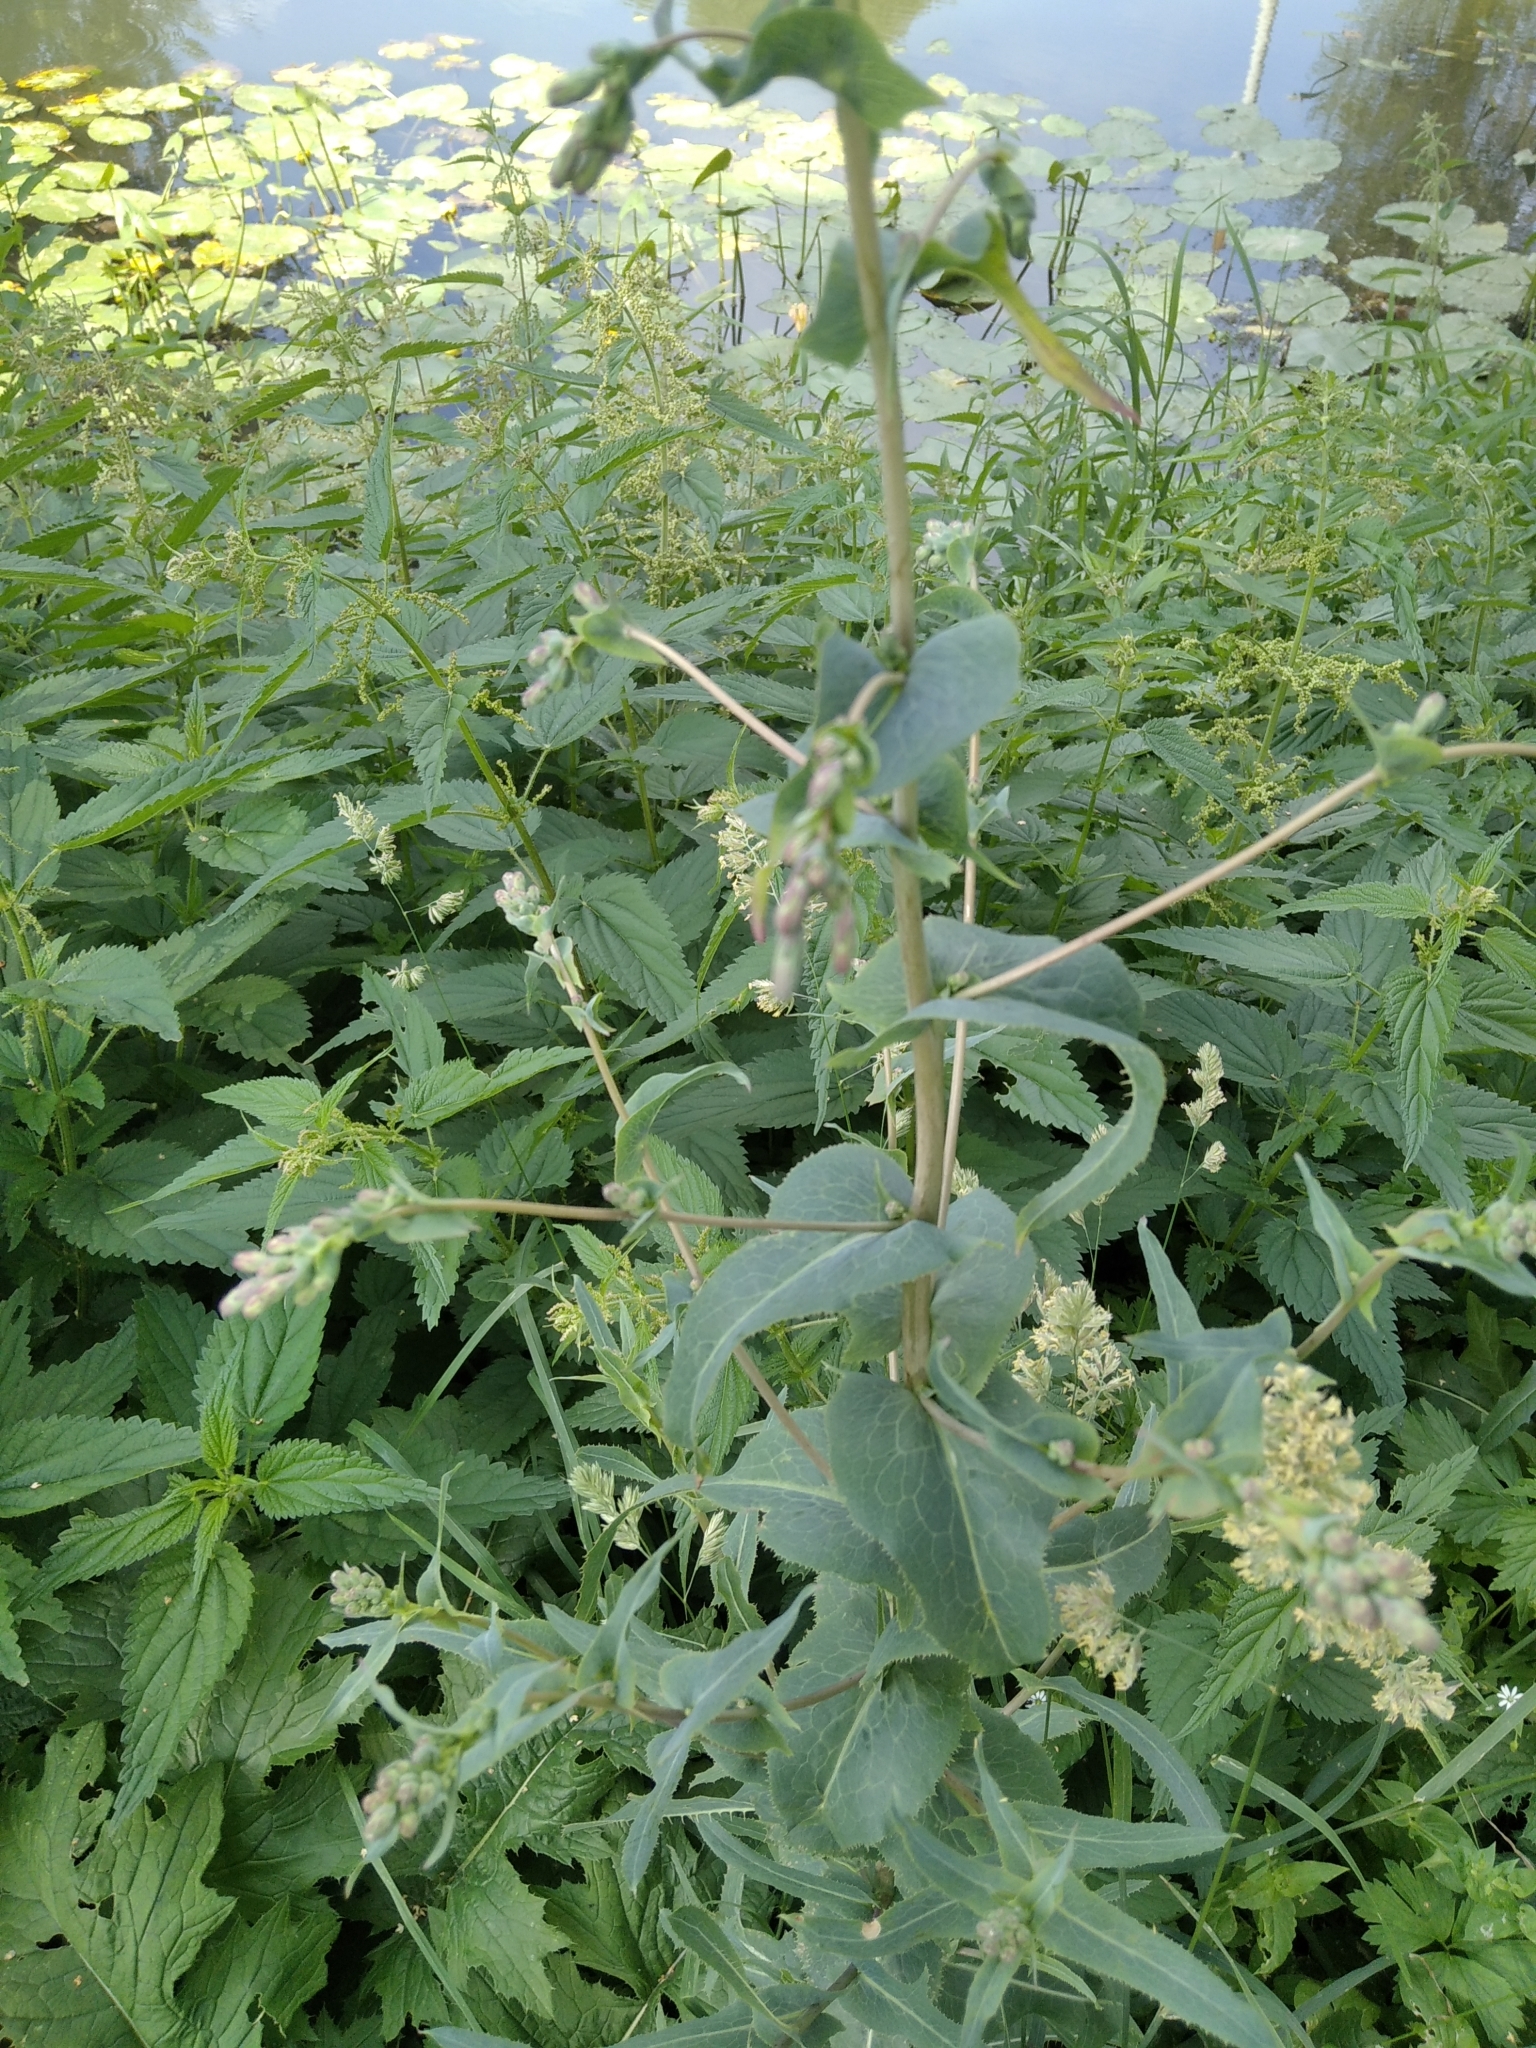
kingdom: Plantae
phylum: Tracheophyta
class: Magnoliopsida
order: Asterales
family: Asteraceae
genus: Lactuca
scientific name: Lactuca serriola
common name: Prickly lettuce
